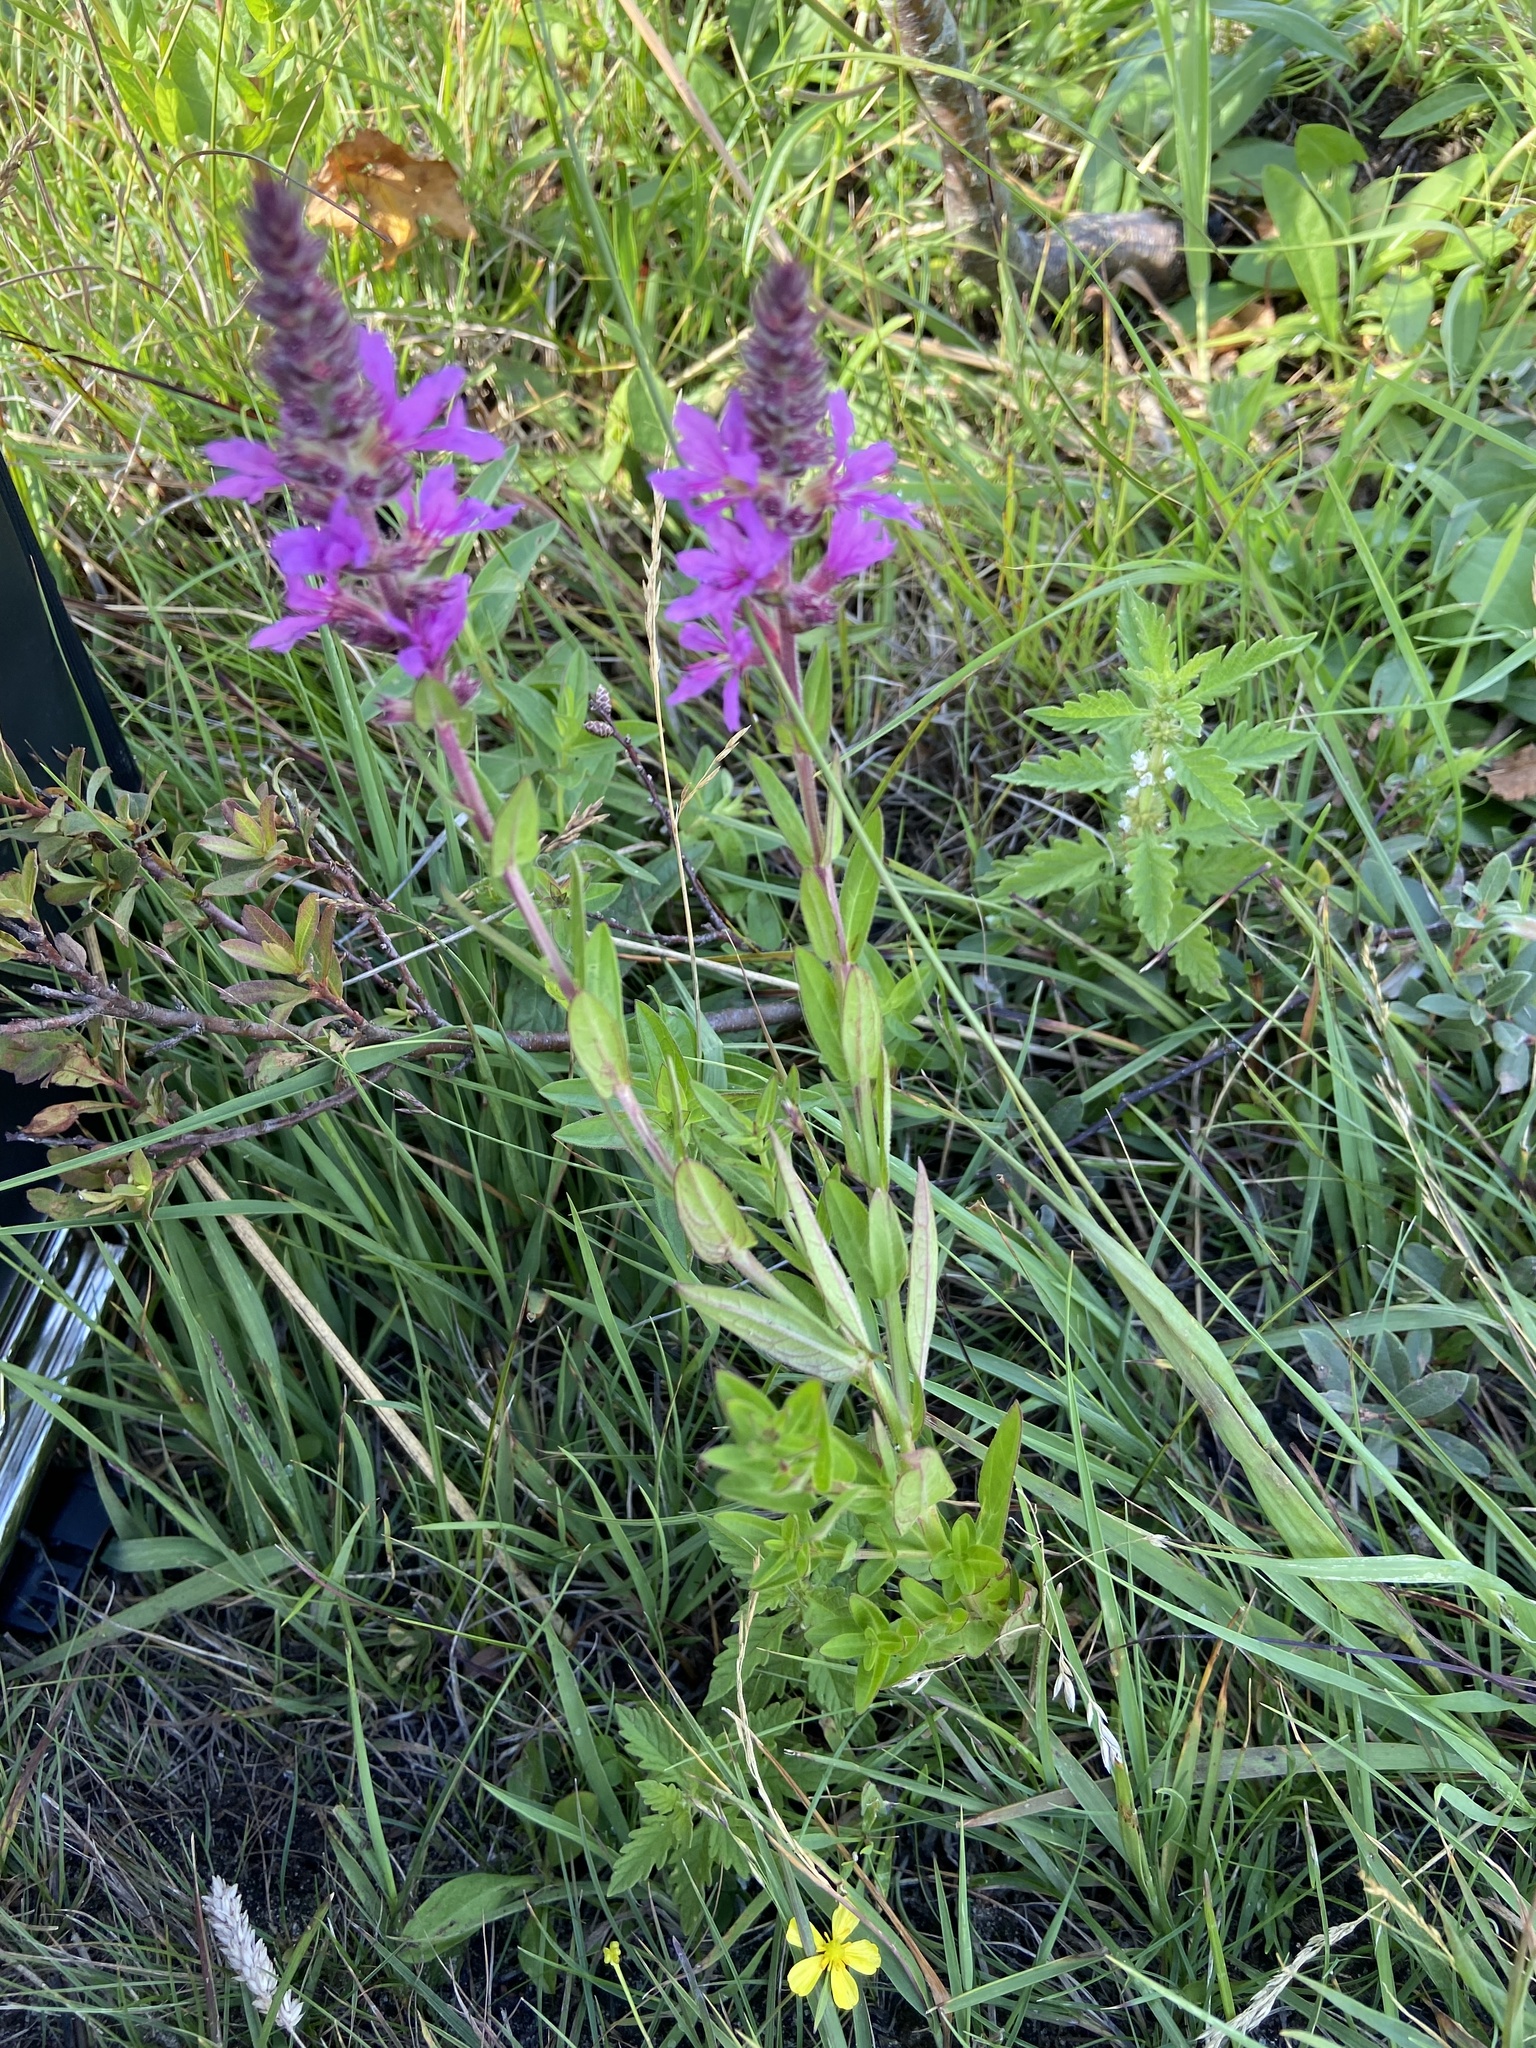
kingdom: Plantae
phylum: Tracheophyta
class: Magnoliopsida
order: Myrtales
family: Lythraceae
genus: Lythrum
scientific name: Lythrum salicaria
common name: Purple loosestrife
